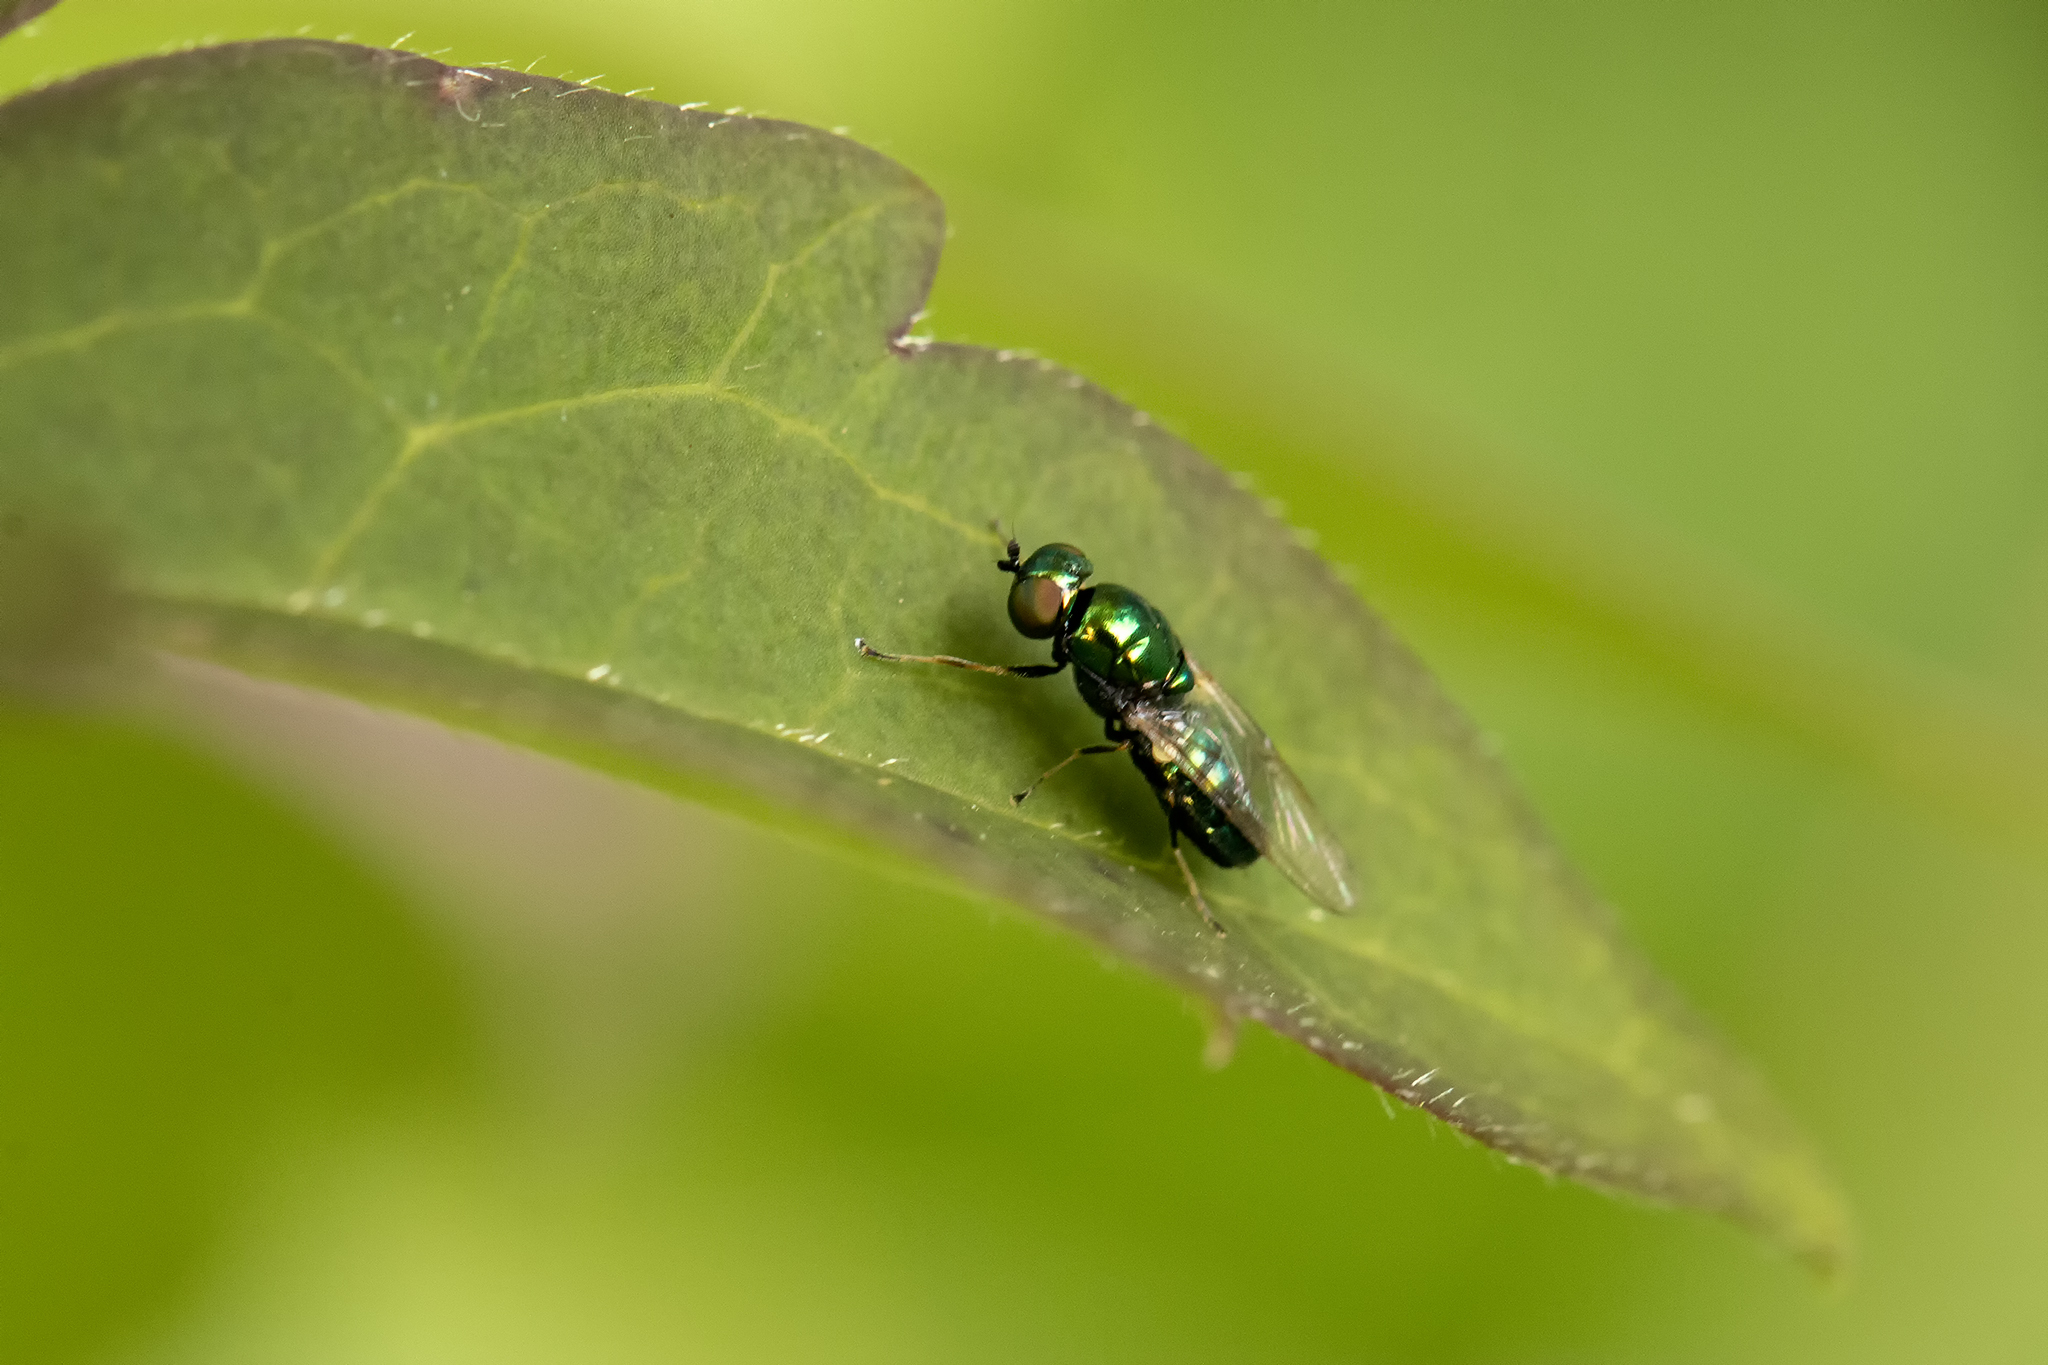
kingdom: Animalia
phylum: Arthropoda
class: Insecta
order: Diptera
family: Stratiomyidae
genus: Microchrysa
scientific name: Microchrysa polita
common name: Black-horned gem
